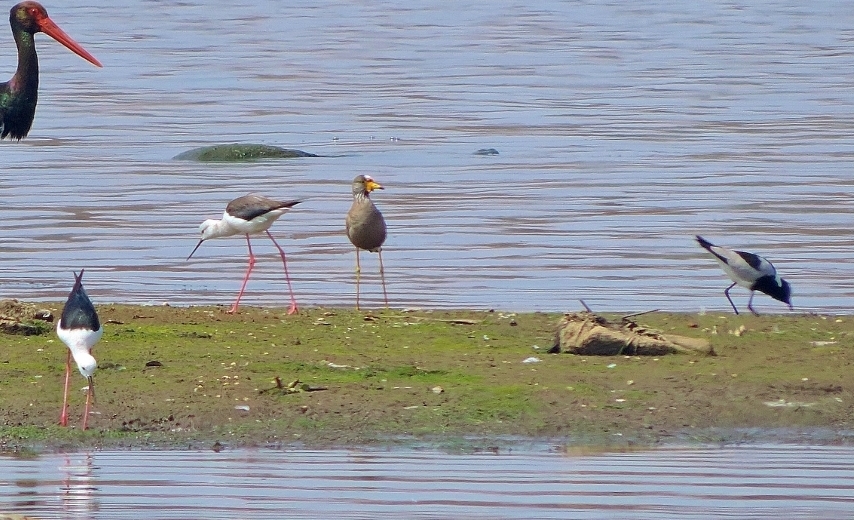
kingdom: Animalia
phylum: Chordata
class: Aves
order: Charadriiformes
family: Charadriidae
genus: Vanellus
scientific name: Vanellus armatus
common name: Blacksmith lapwing
